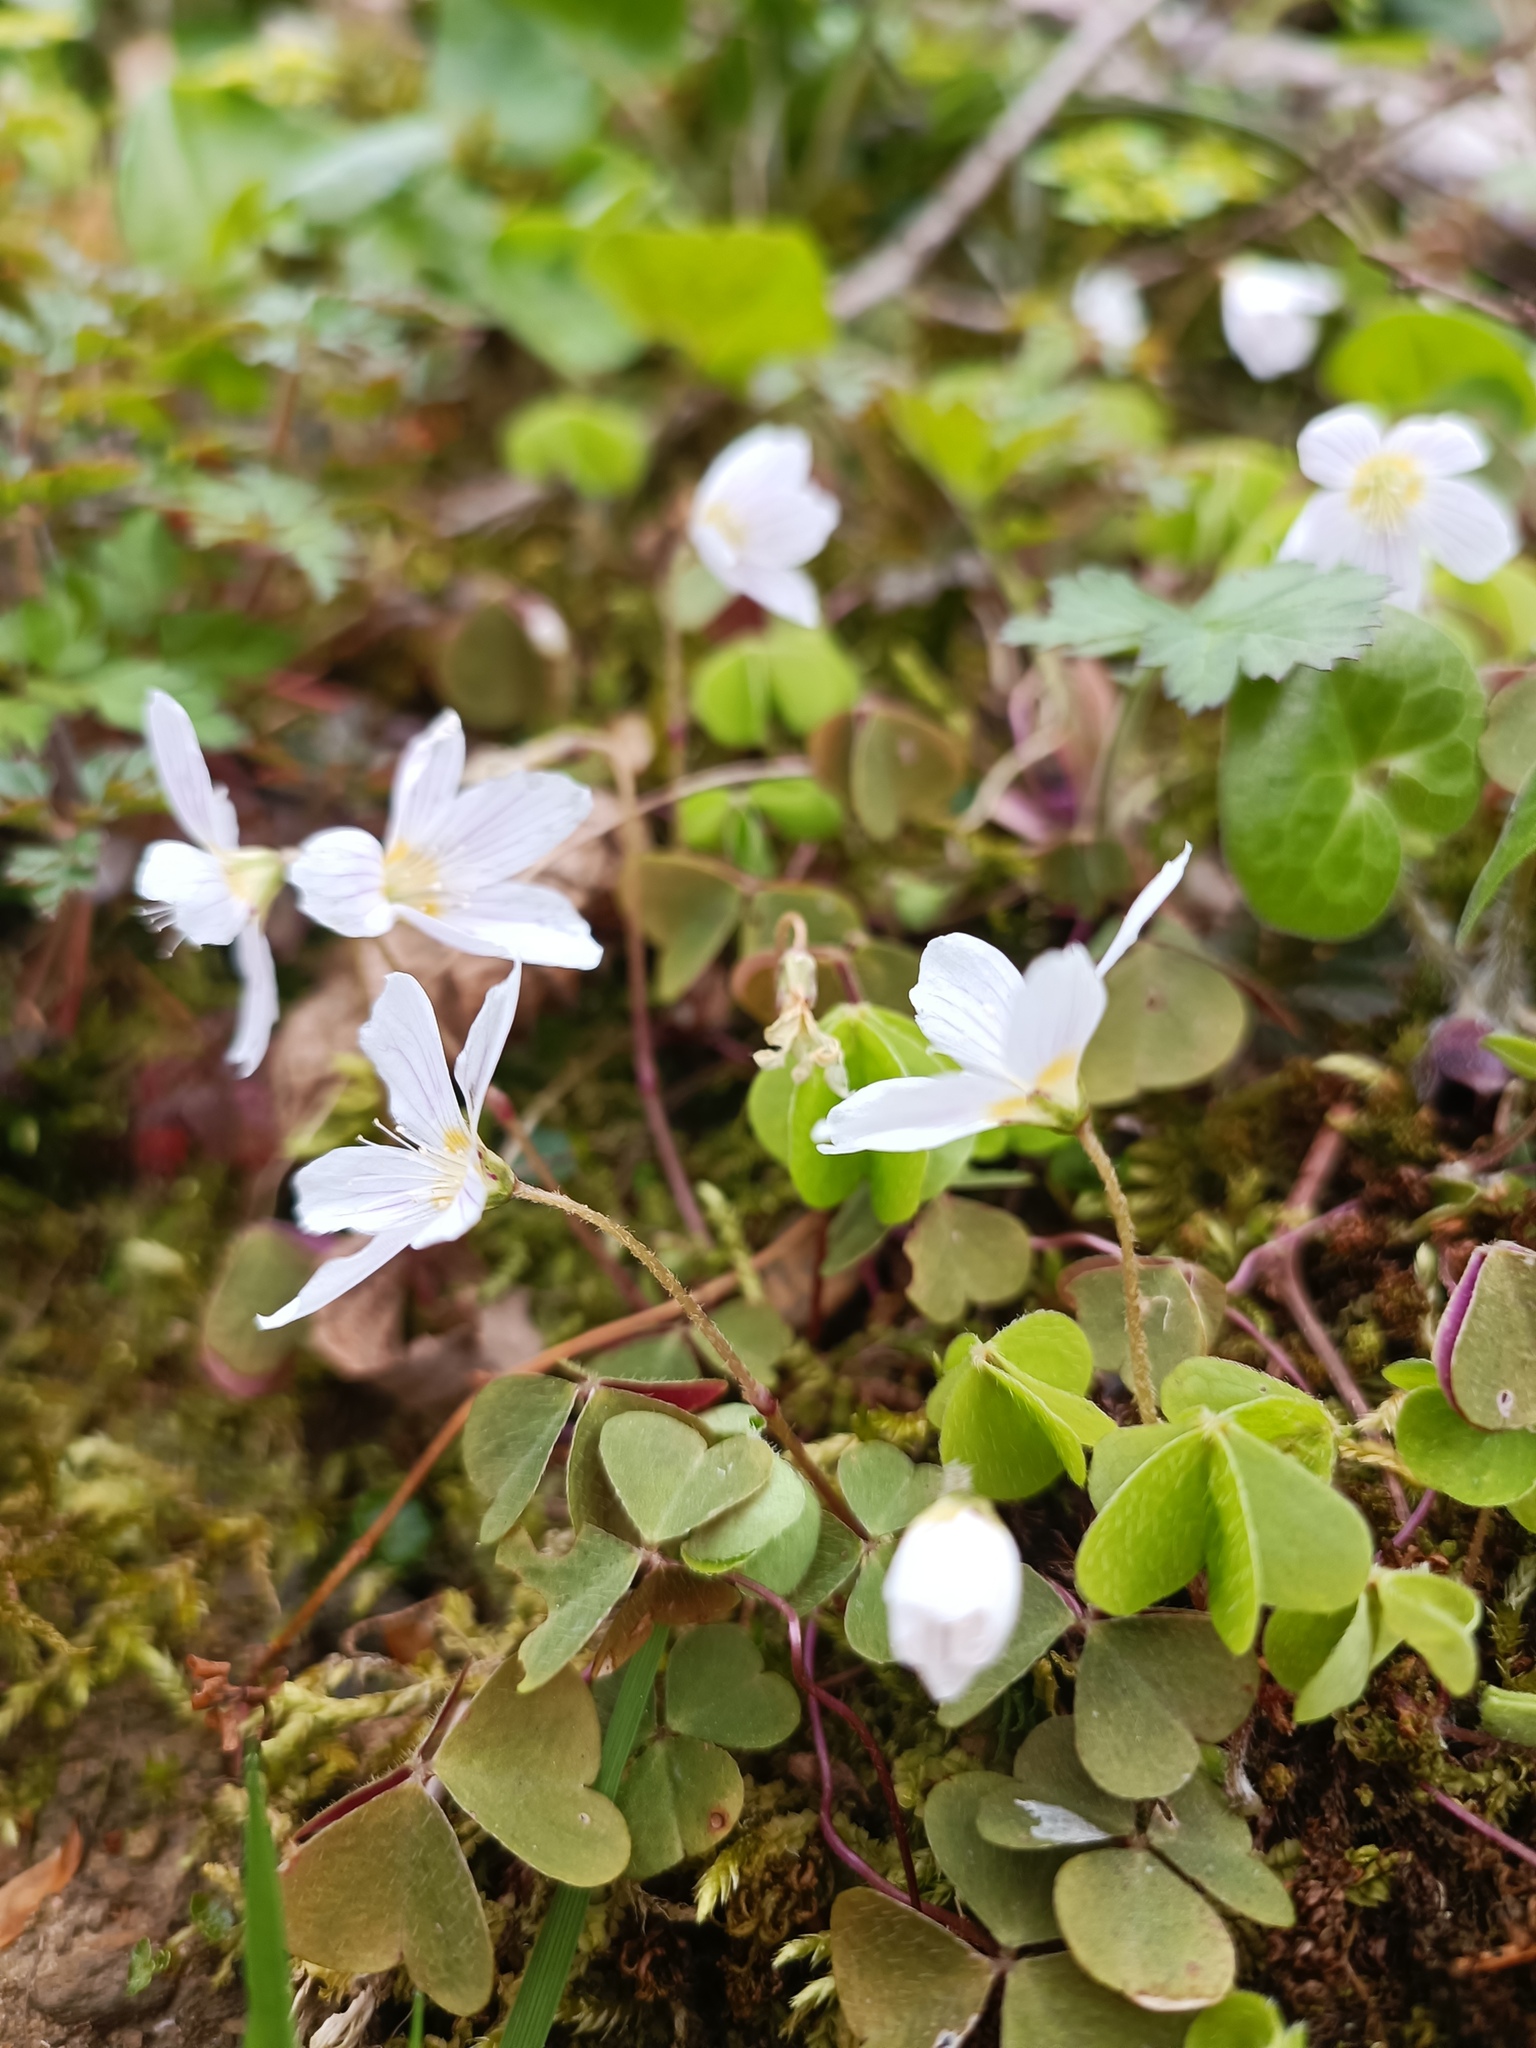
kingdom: Plantae
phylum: Tracheophyta
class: Magnoliopsida
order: Oxalidales
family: Oxalidaceae
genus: Oxalis
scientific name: Oxalis acetosella
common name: Wood-sorrel
